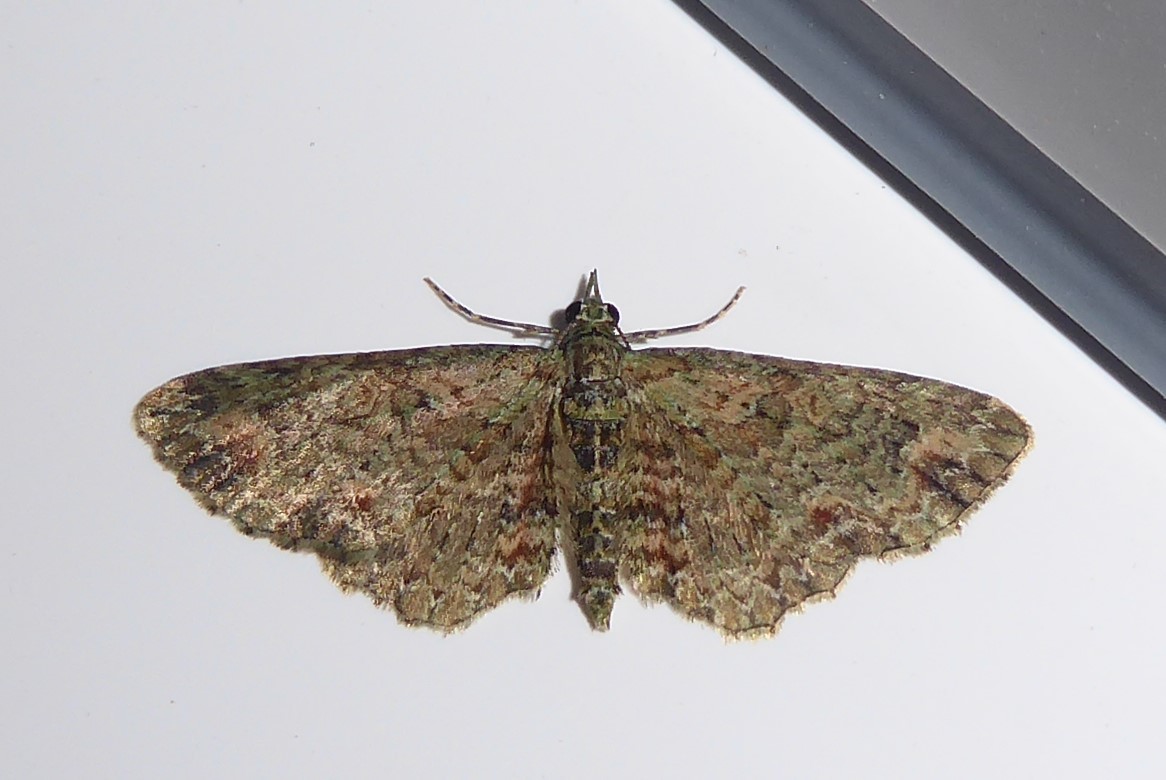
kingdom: Animalia
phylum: Arthropoda
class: Insecta
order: Lepidoptera
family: Geometridae
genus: Pasiphilodes
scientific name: Pasiphilodes testulata
